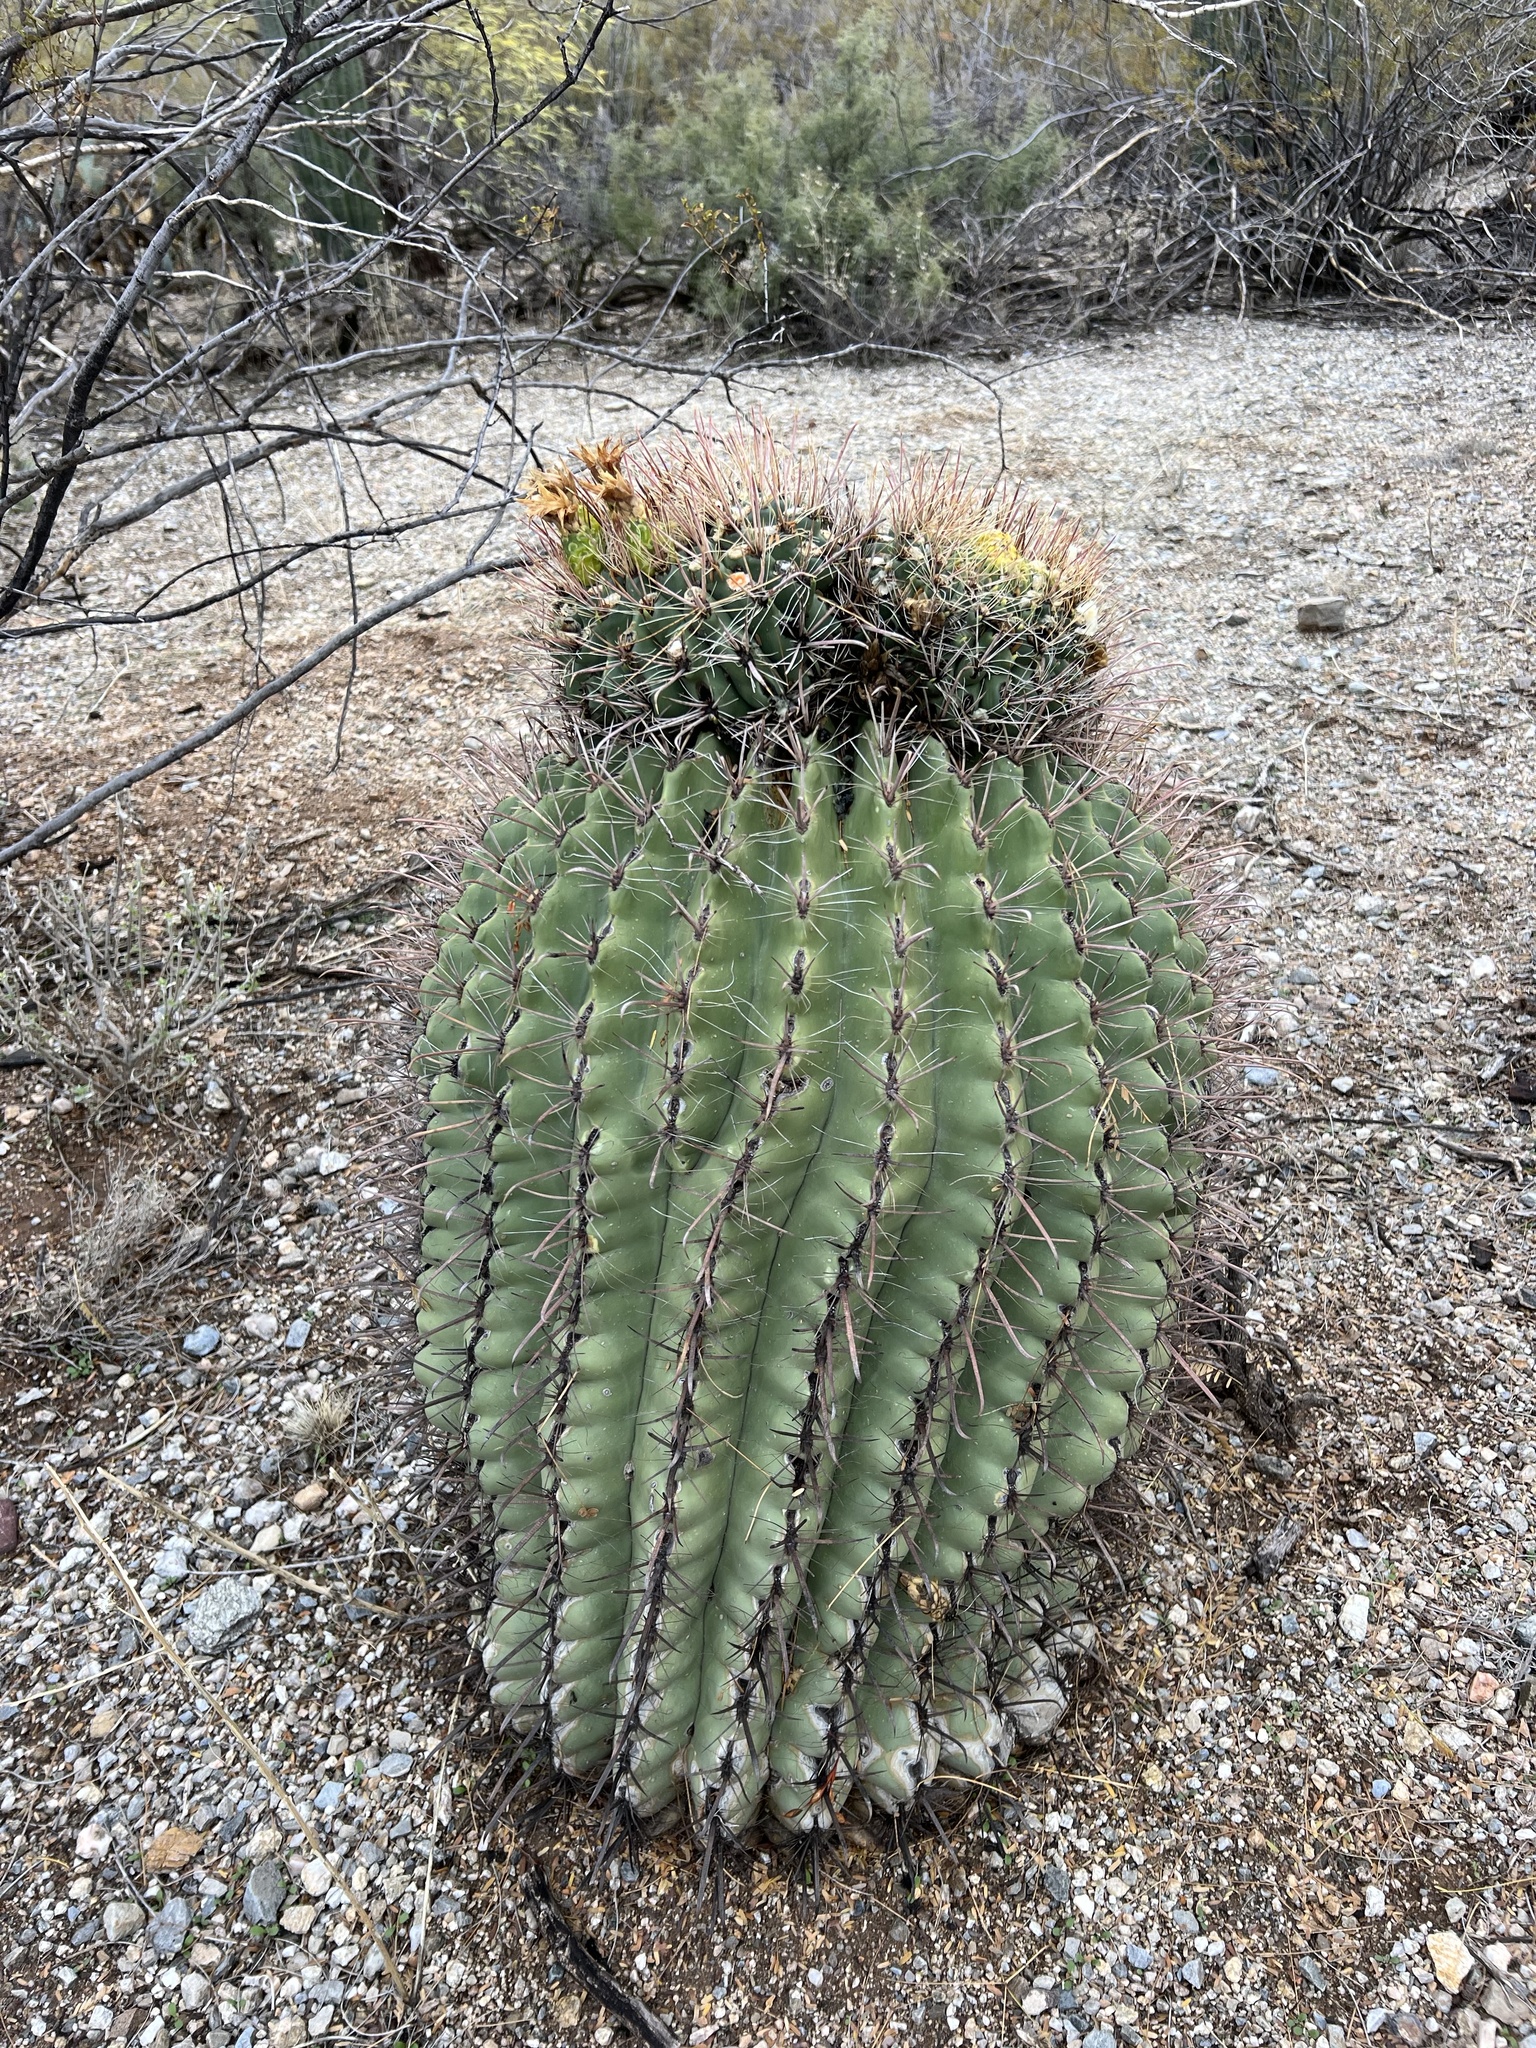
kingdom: Plantae
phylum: Tracheophyta
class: Magnoliopsida
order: Caryophyllales
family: Cactaceae
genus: Ferocactus
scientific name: Ferocactus wislizeni
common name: Candy barrel cactus
